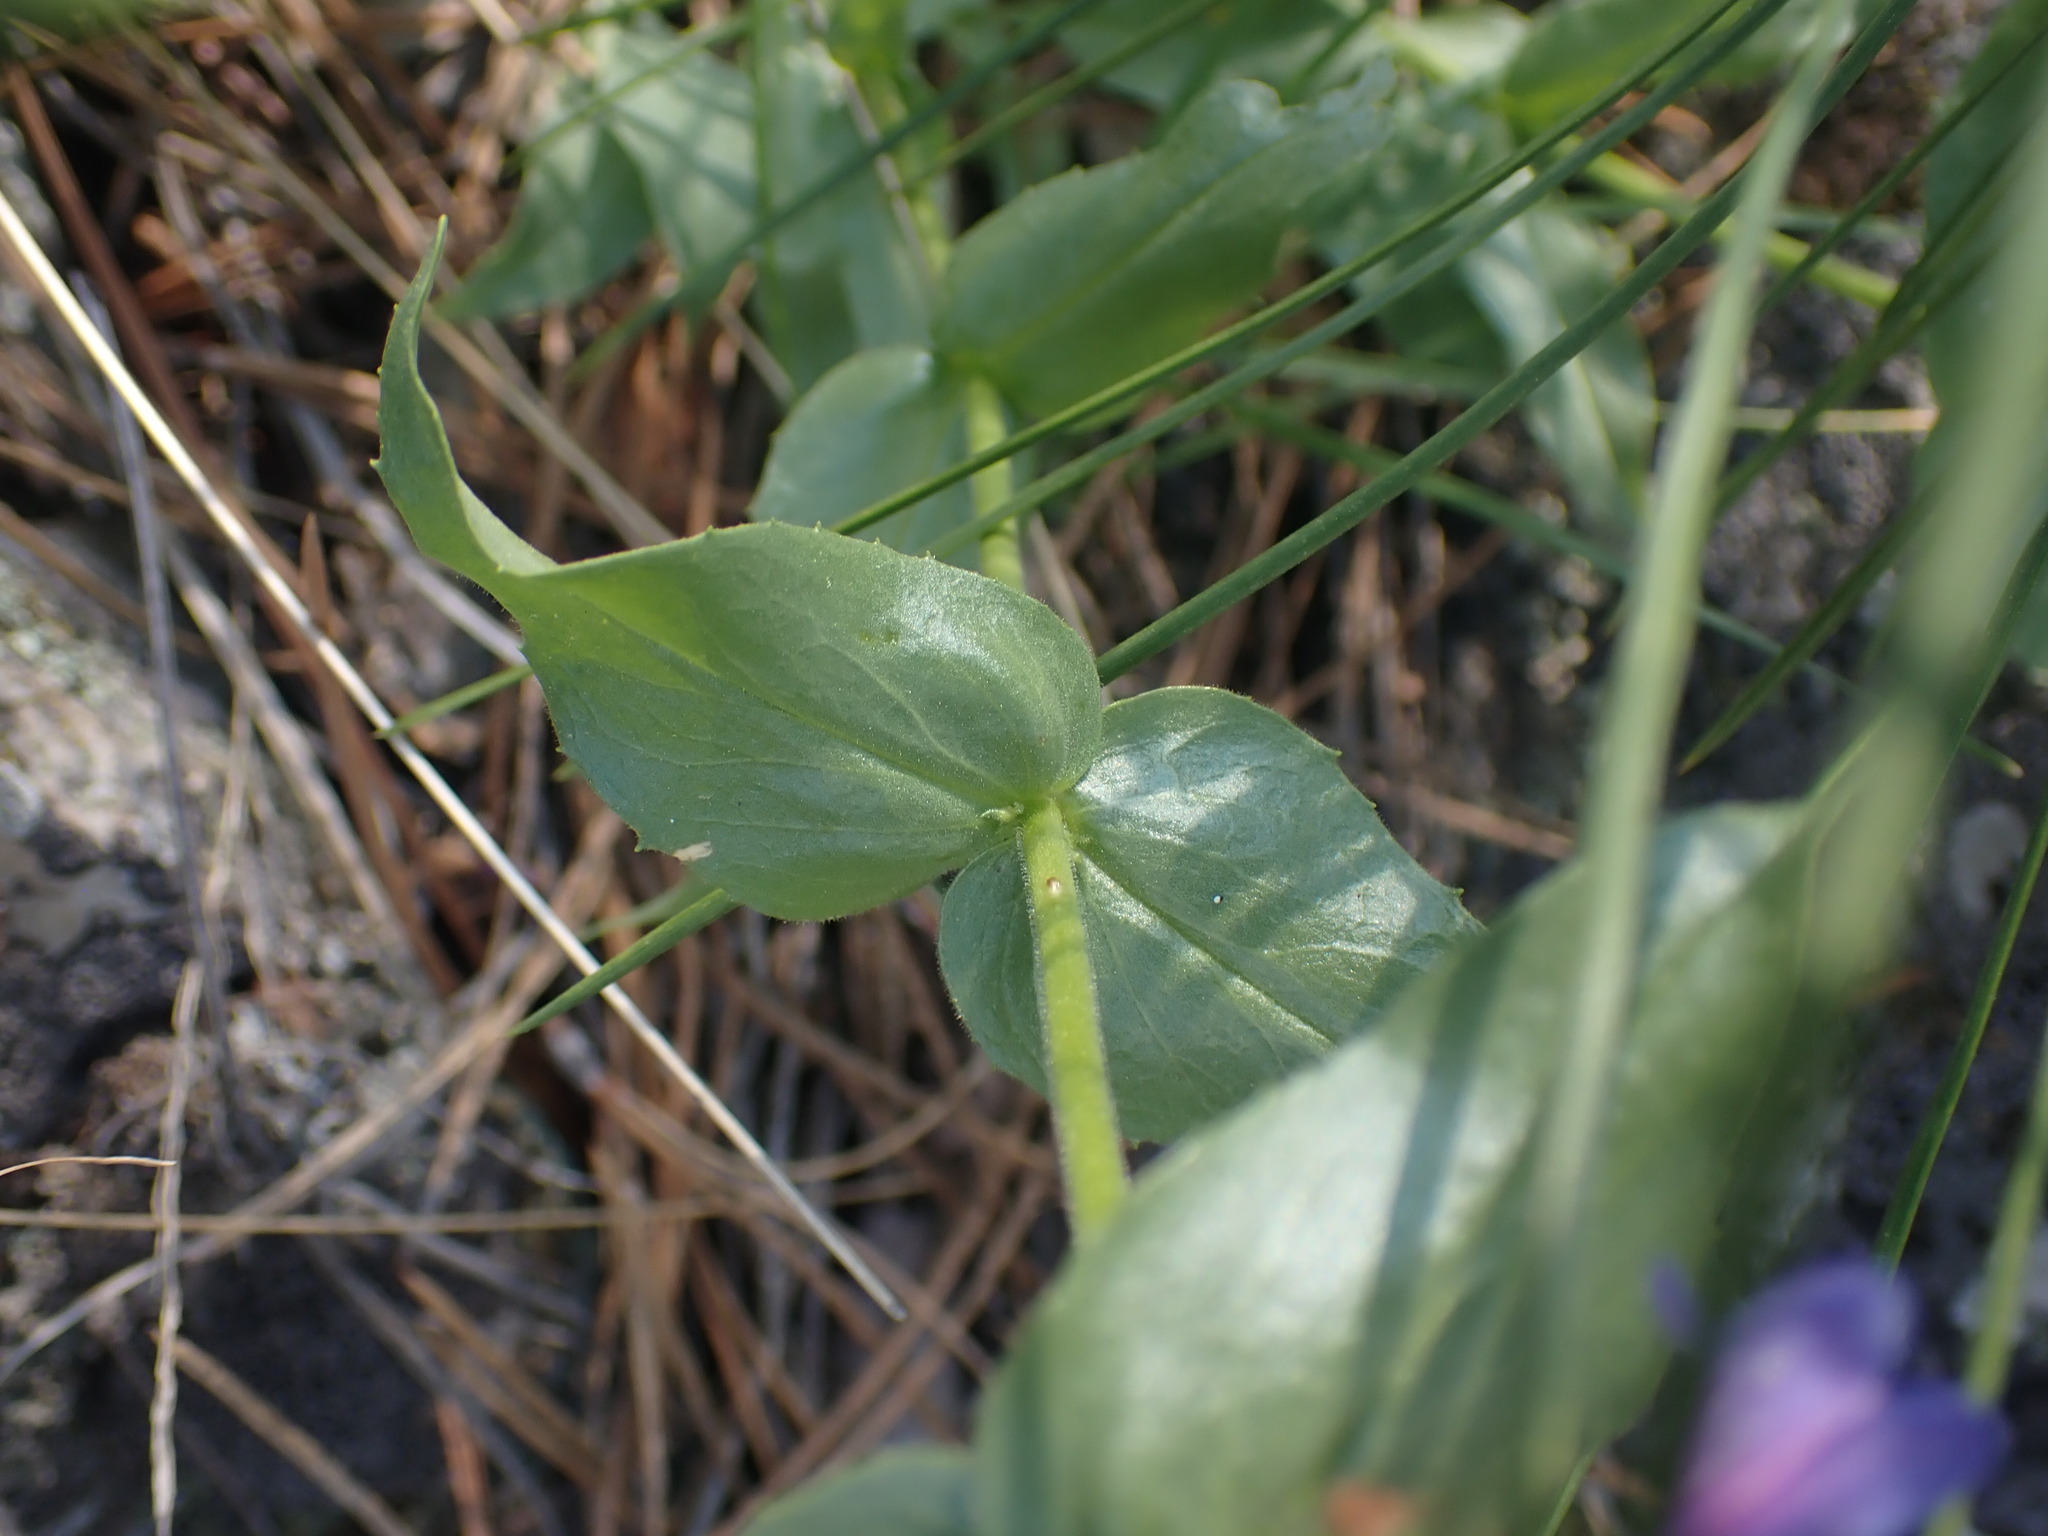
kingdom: Plantae
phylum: Tracheophyta
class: Magnoliopsida
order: Lamiales
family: Plantaginaceae
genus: Penstemon
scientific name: Penstemon pruinosus
